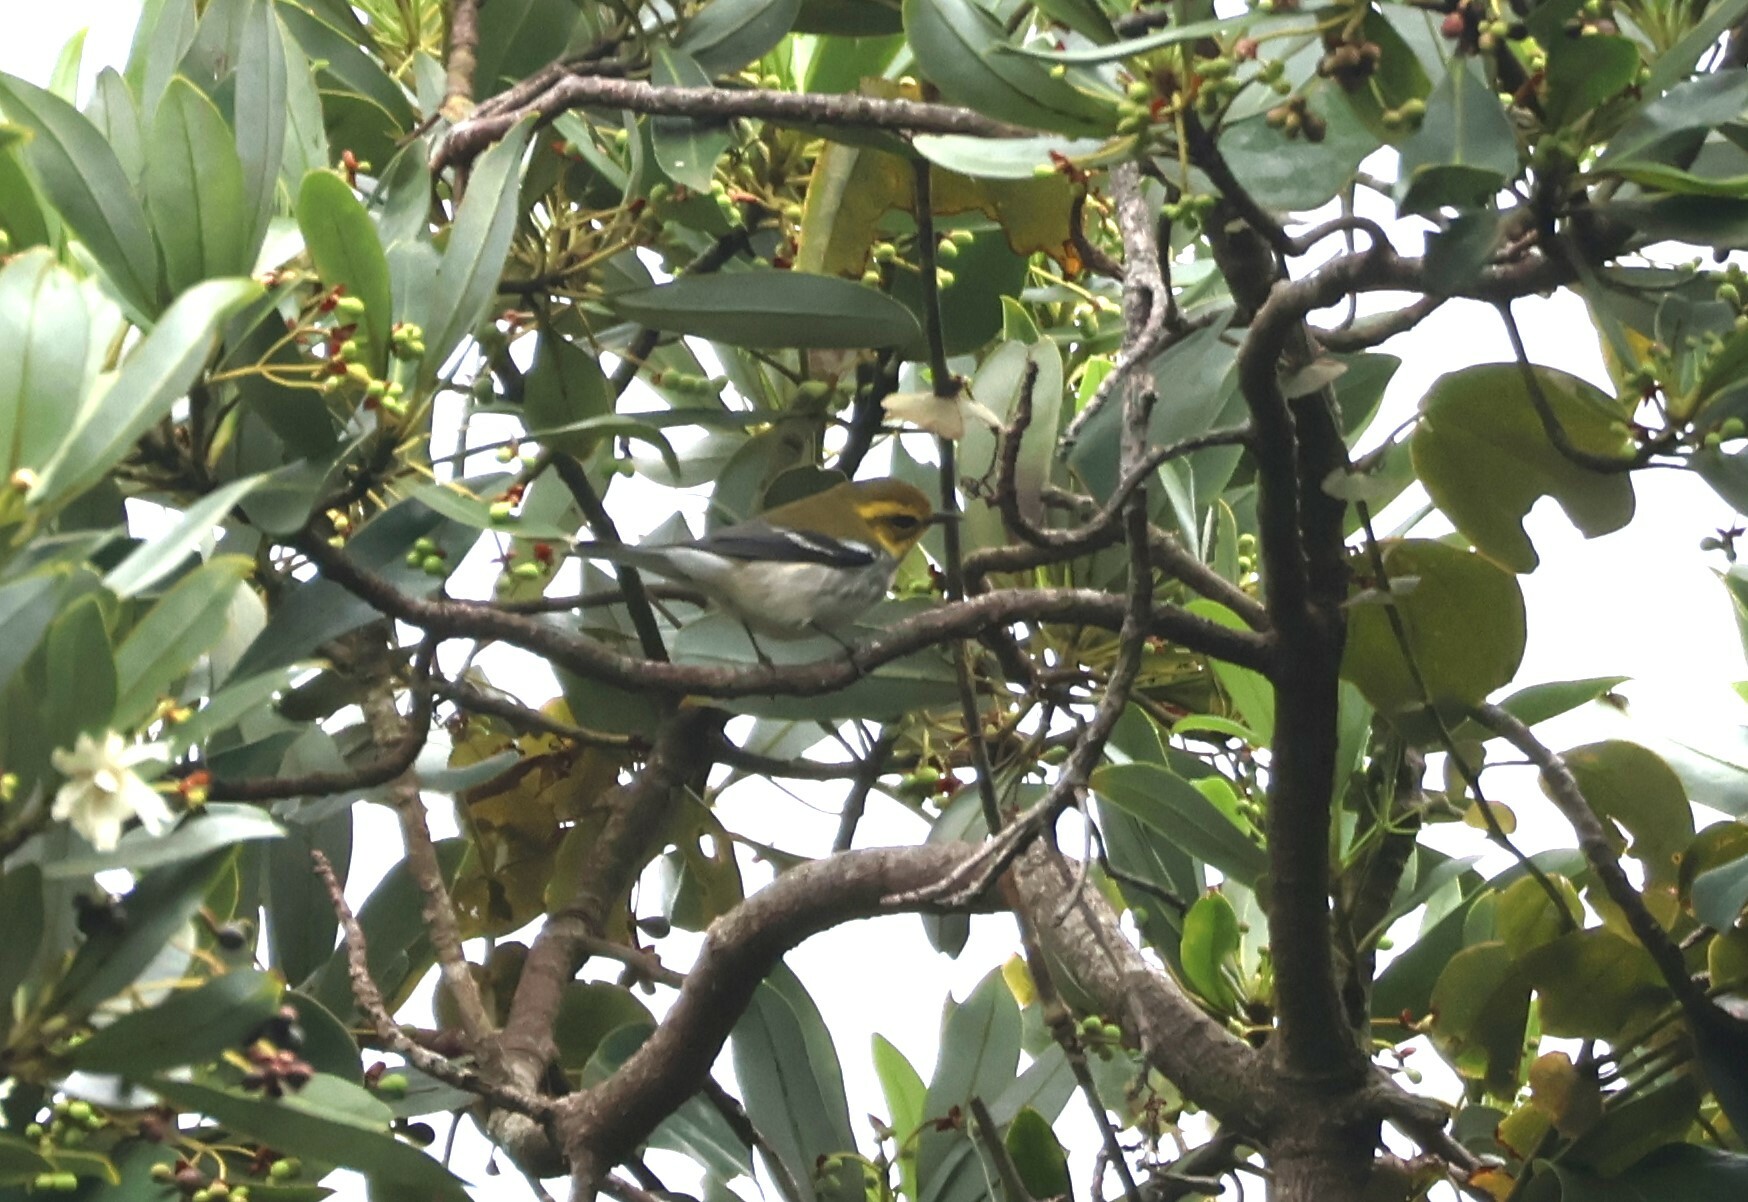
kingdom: Animalia
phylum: Chordata
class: Aves
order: Passeriformes
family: Parulidae
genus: Setophaga
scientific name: Setophaga virens
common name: Black-throated green warbler
